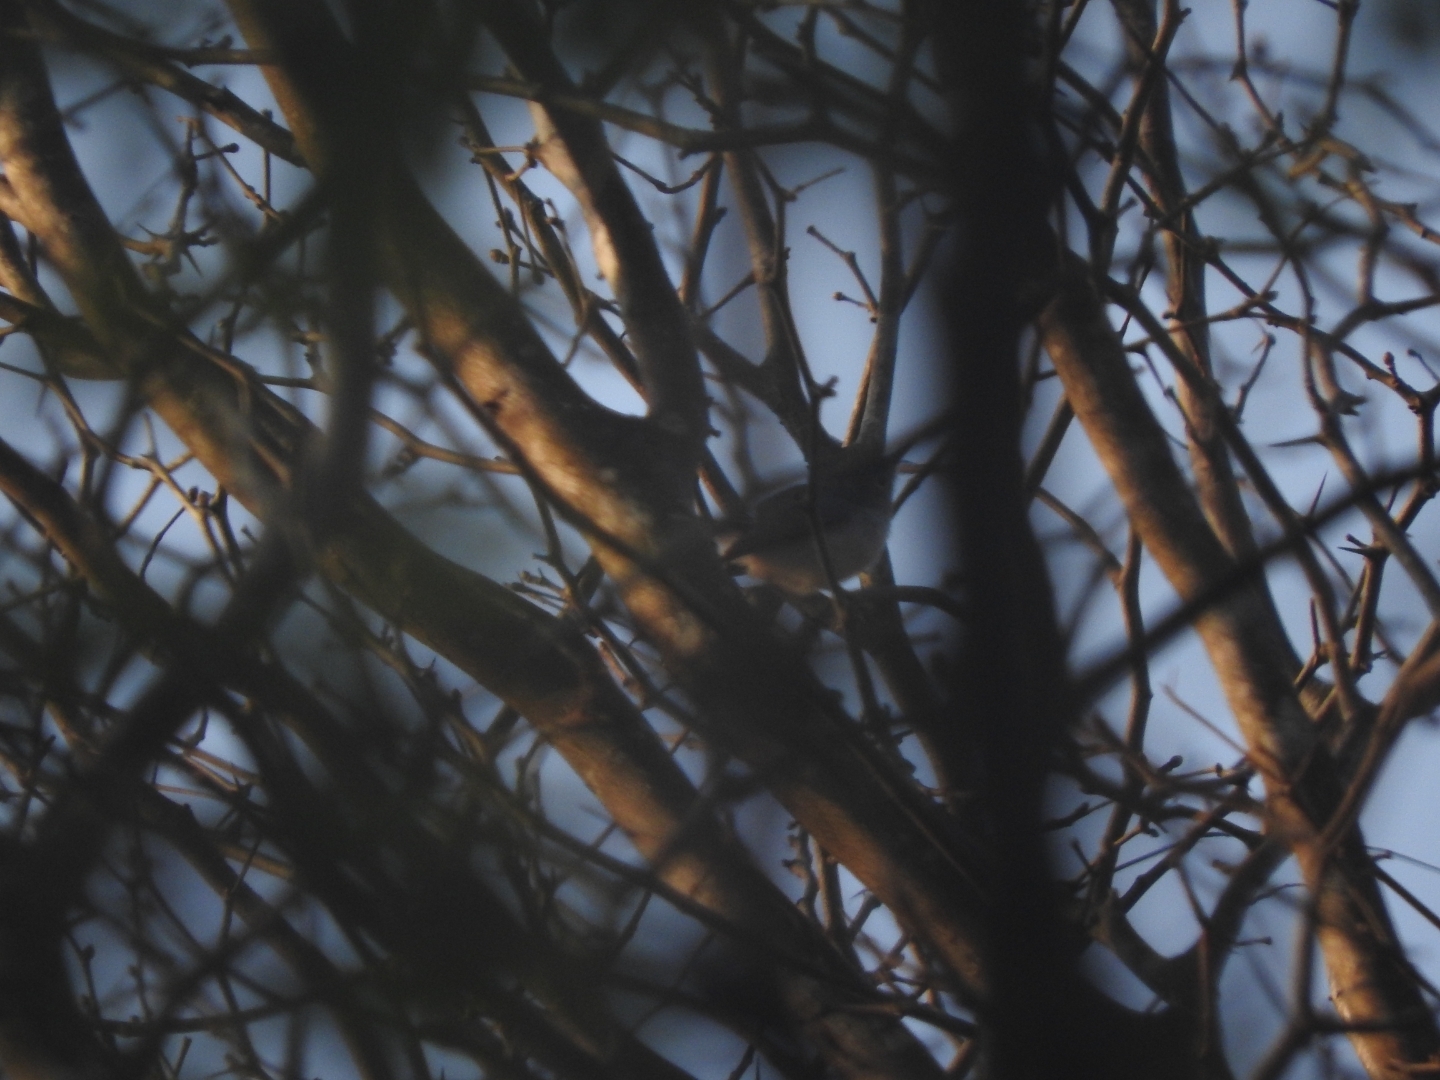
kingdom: Animalia
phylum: Chordata
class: Aves
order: Passeriformes
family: Polioptilidae
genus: Polioptila
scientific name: Polioptila caerulea
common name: Blue-gray gnatcatcher
